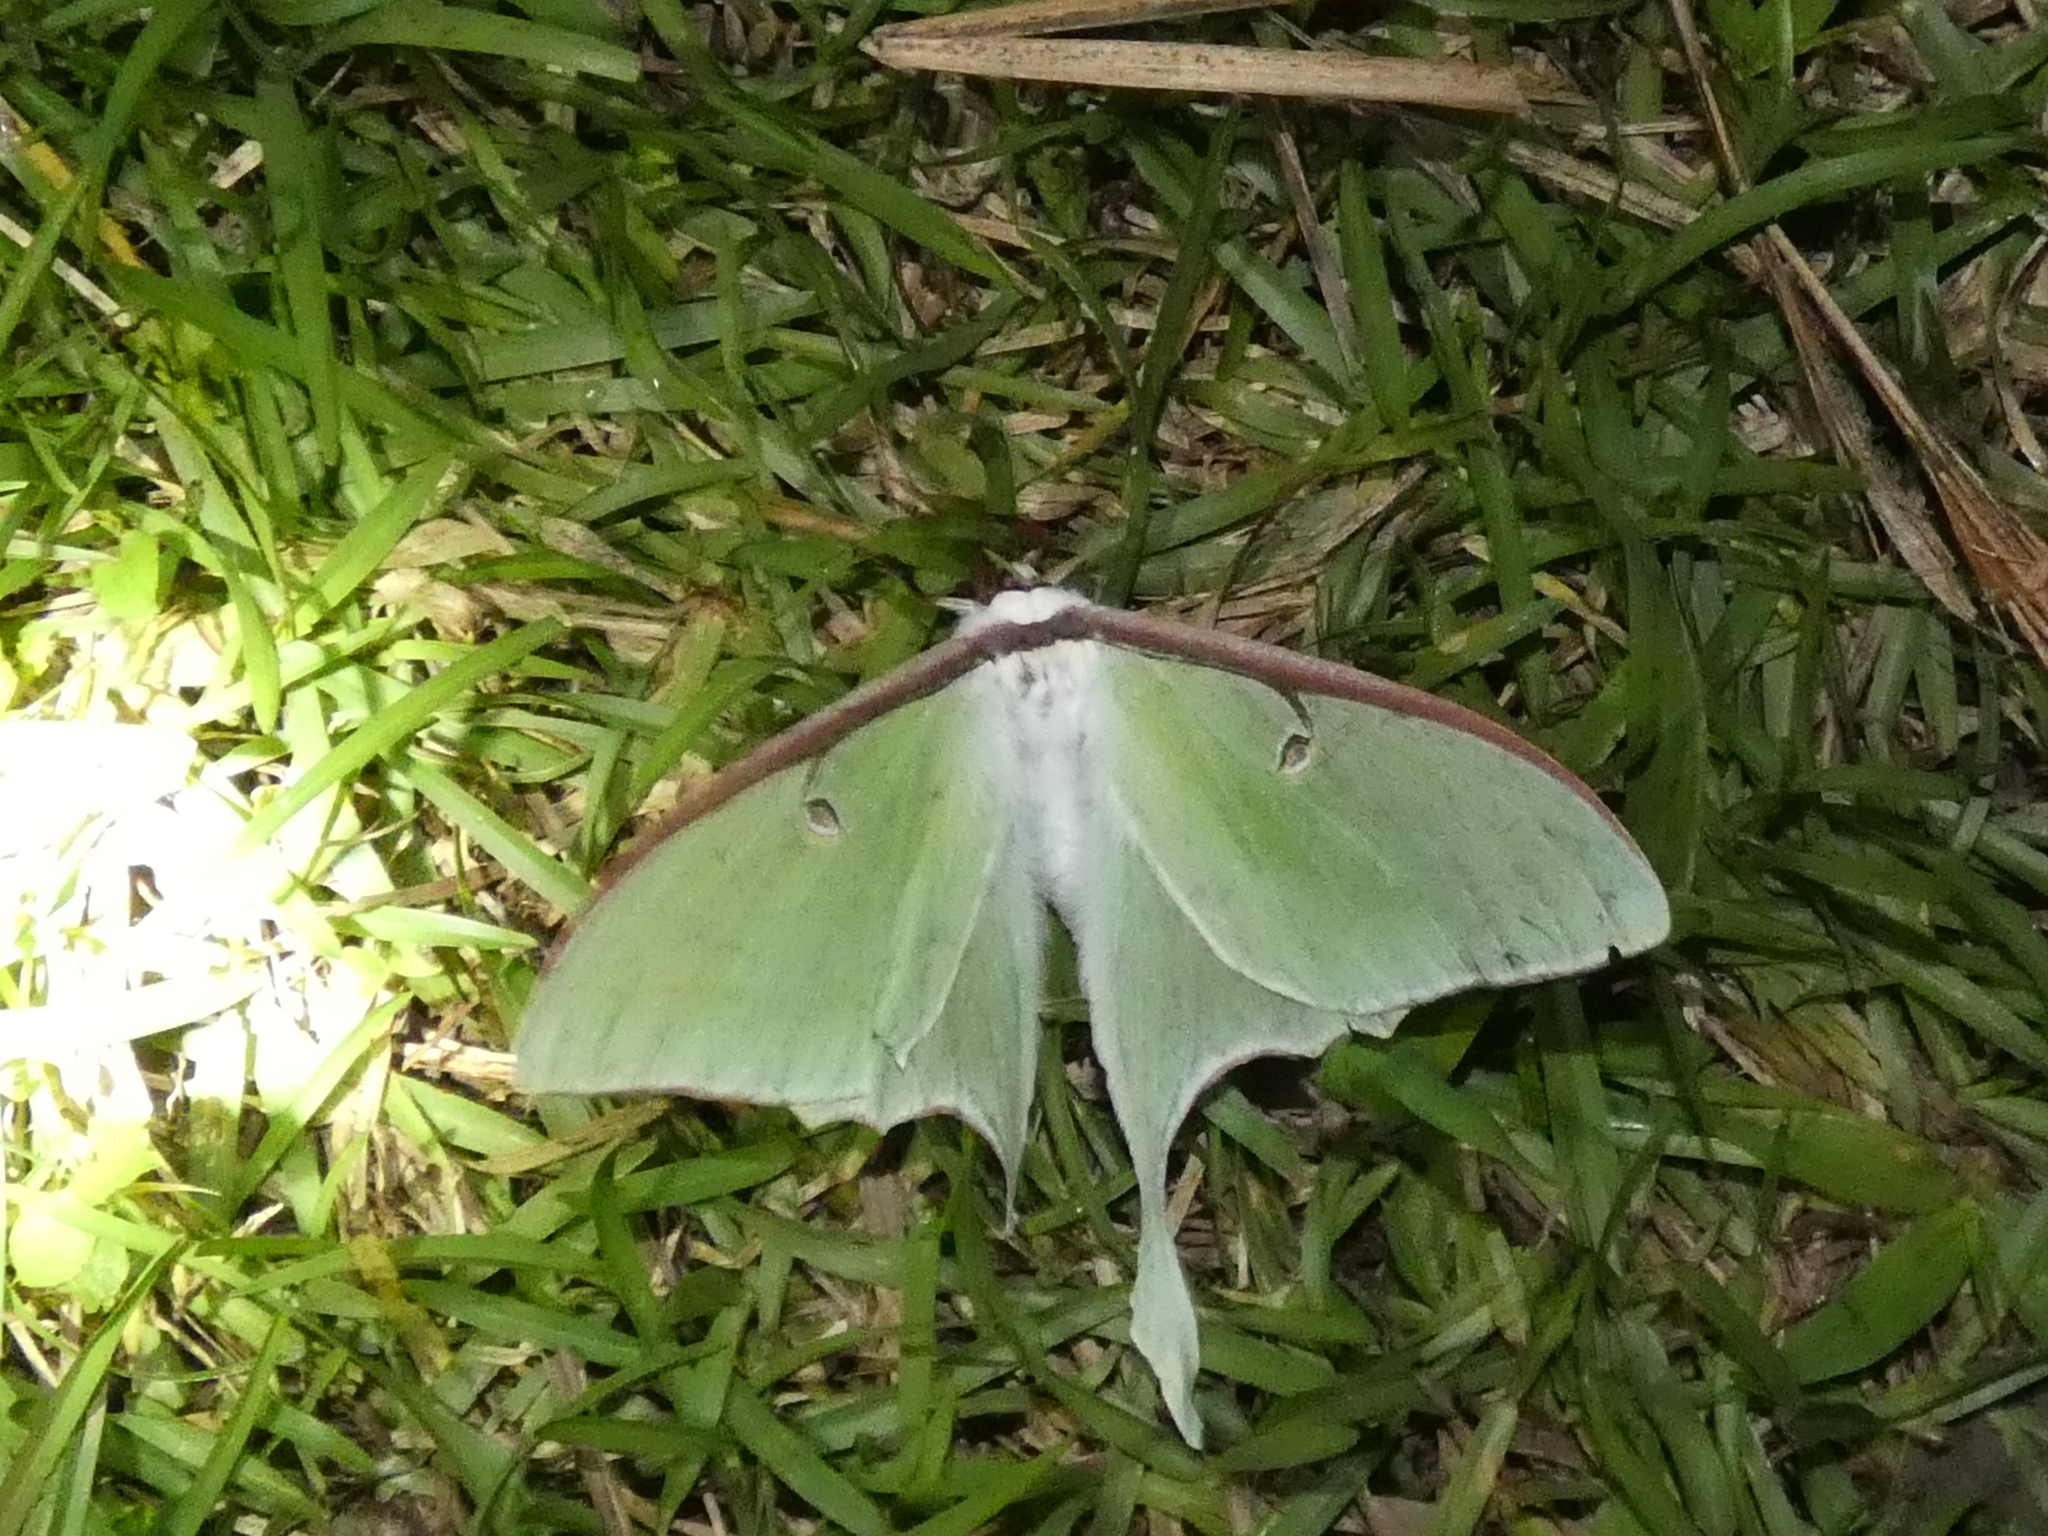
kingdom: Animalia
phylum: Arthropoda
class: Insecta
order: Lepidoptera
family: Saturniidae
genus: Actias
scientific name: Actias luna
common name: Luna moth
